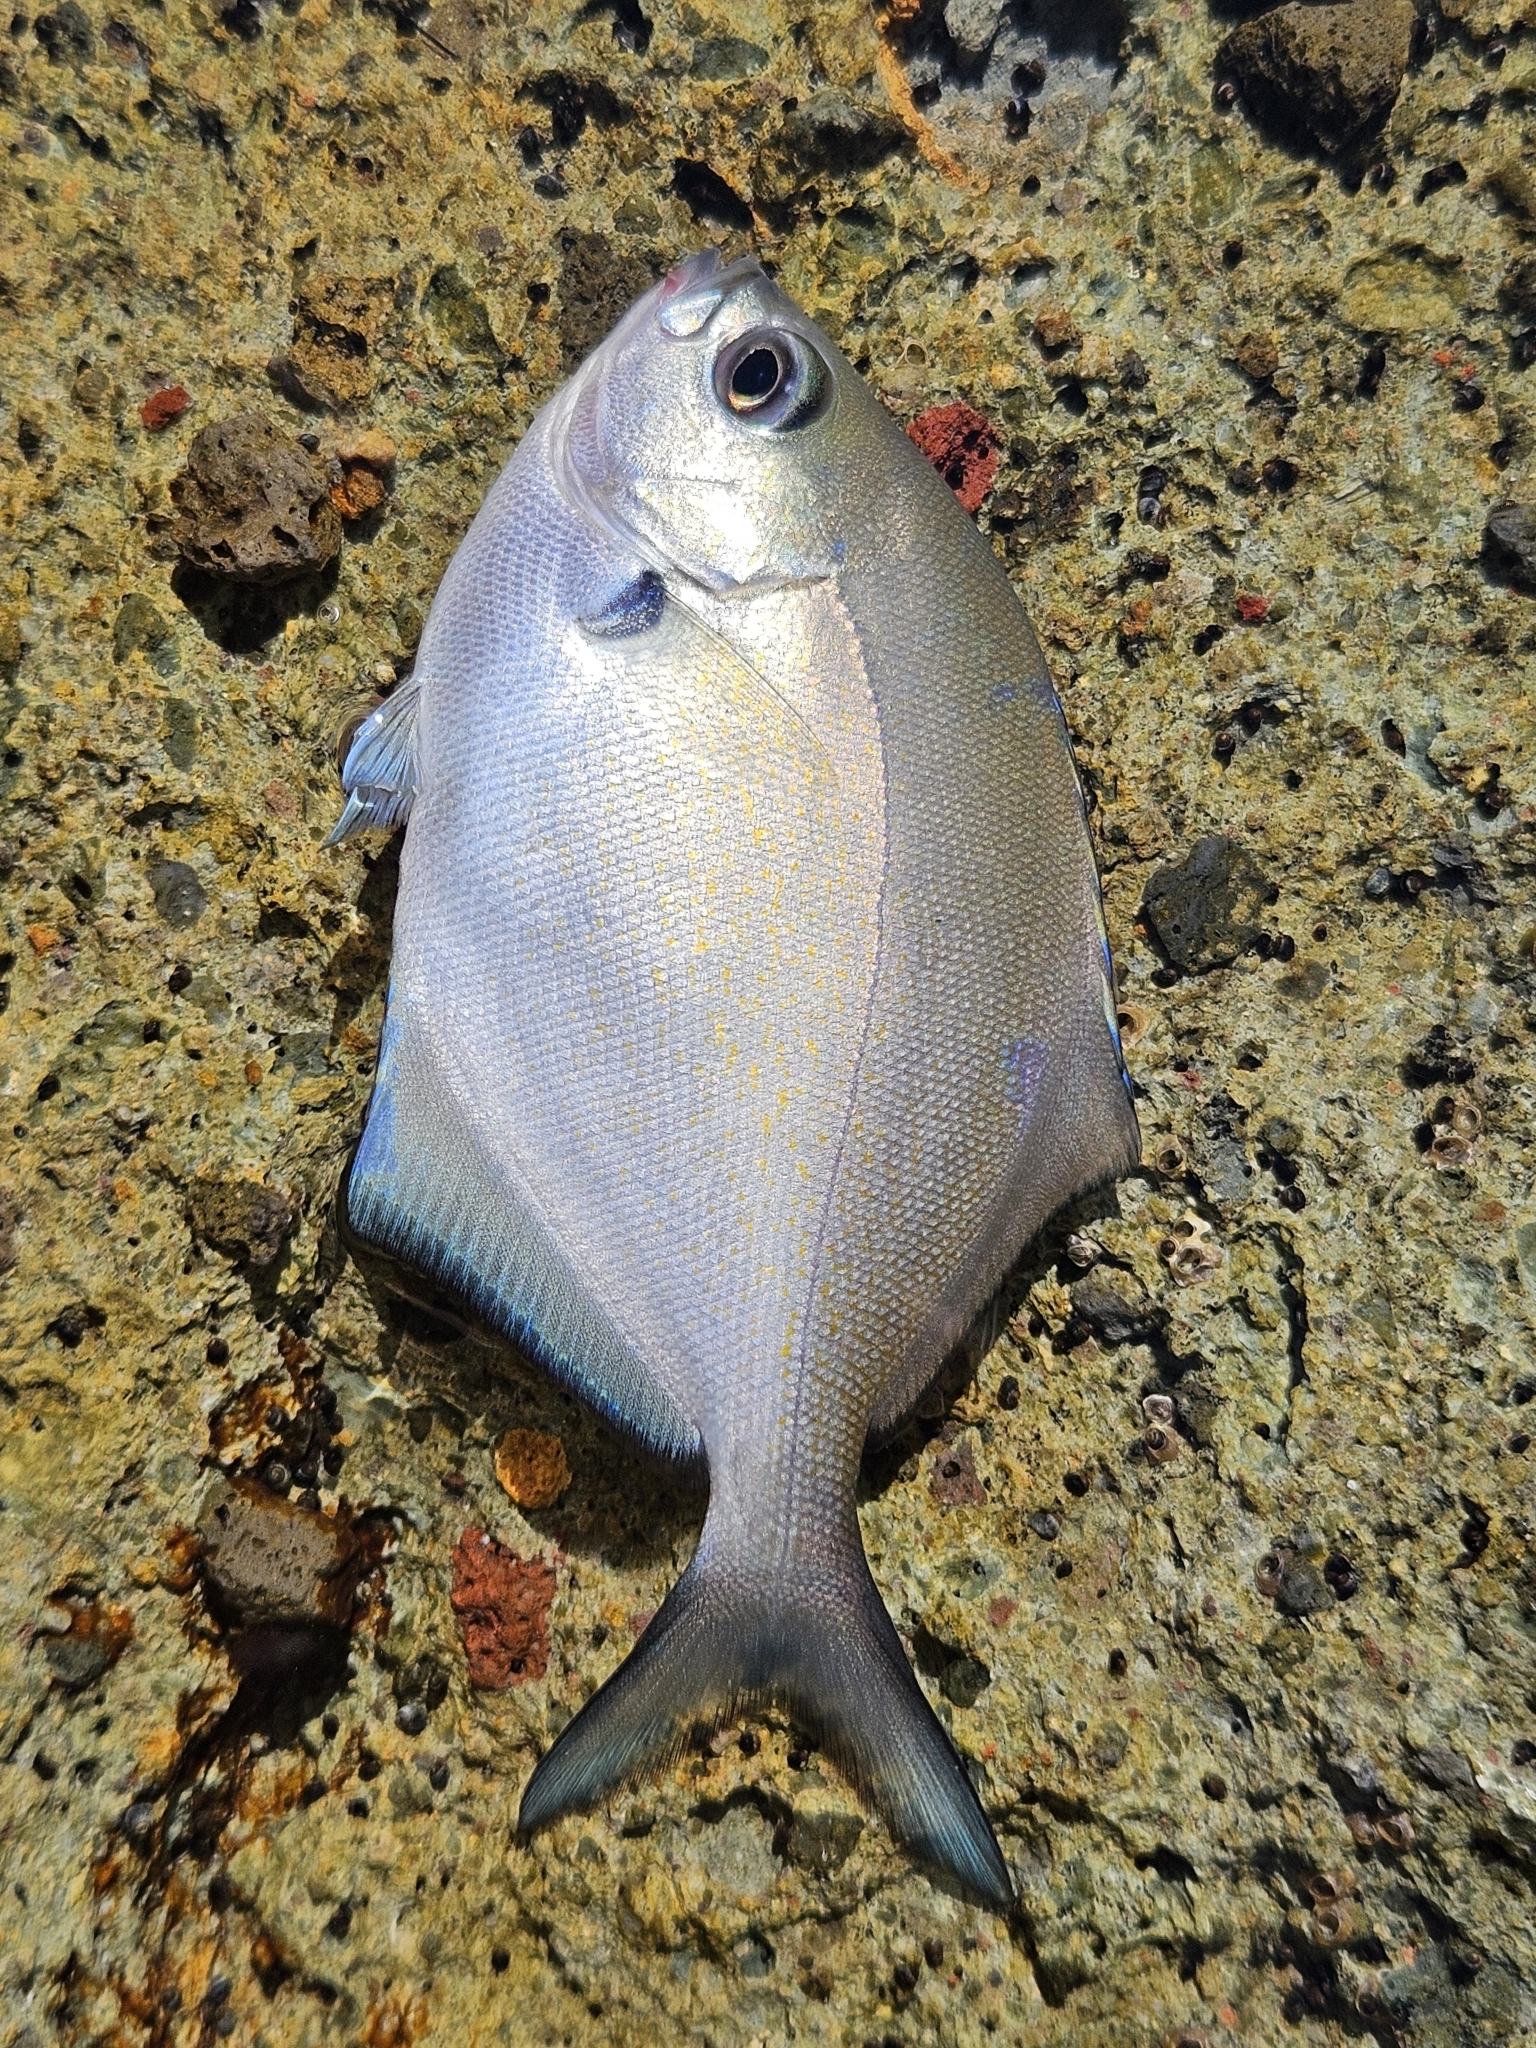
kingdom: Animalia
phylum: Chordata
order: Perciformes
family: Kyphosidae
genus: Scorpis
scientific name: Scorpis lineolata
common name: Sweep
